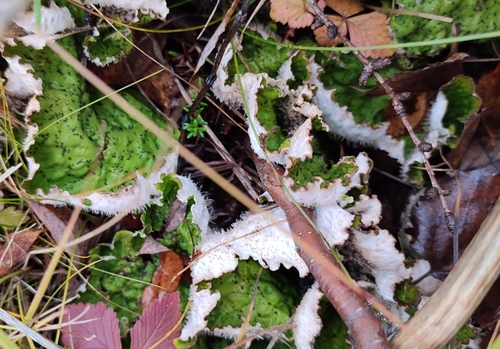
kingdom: Fungi
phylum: Ascomycota
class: Lecanoromycetes
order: Peltigerales
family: Peltigeraceae
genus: Peltigera
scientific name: Peltigera
